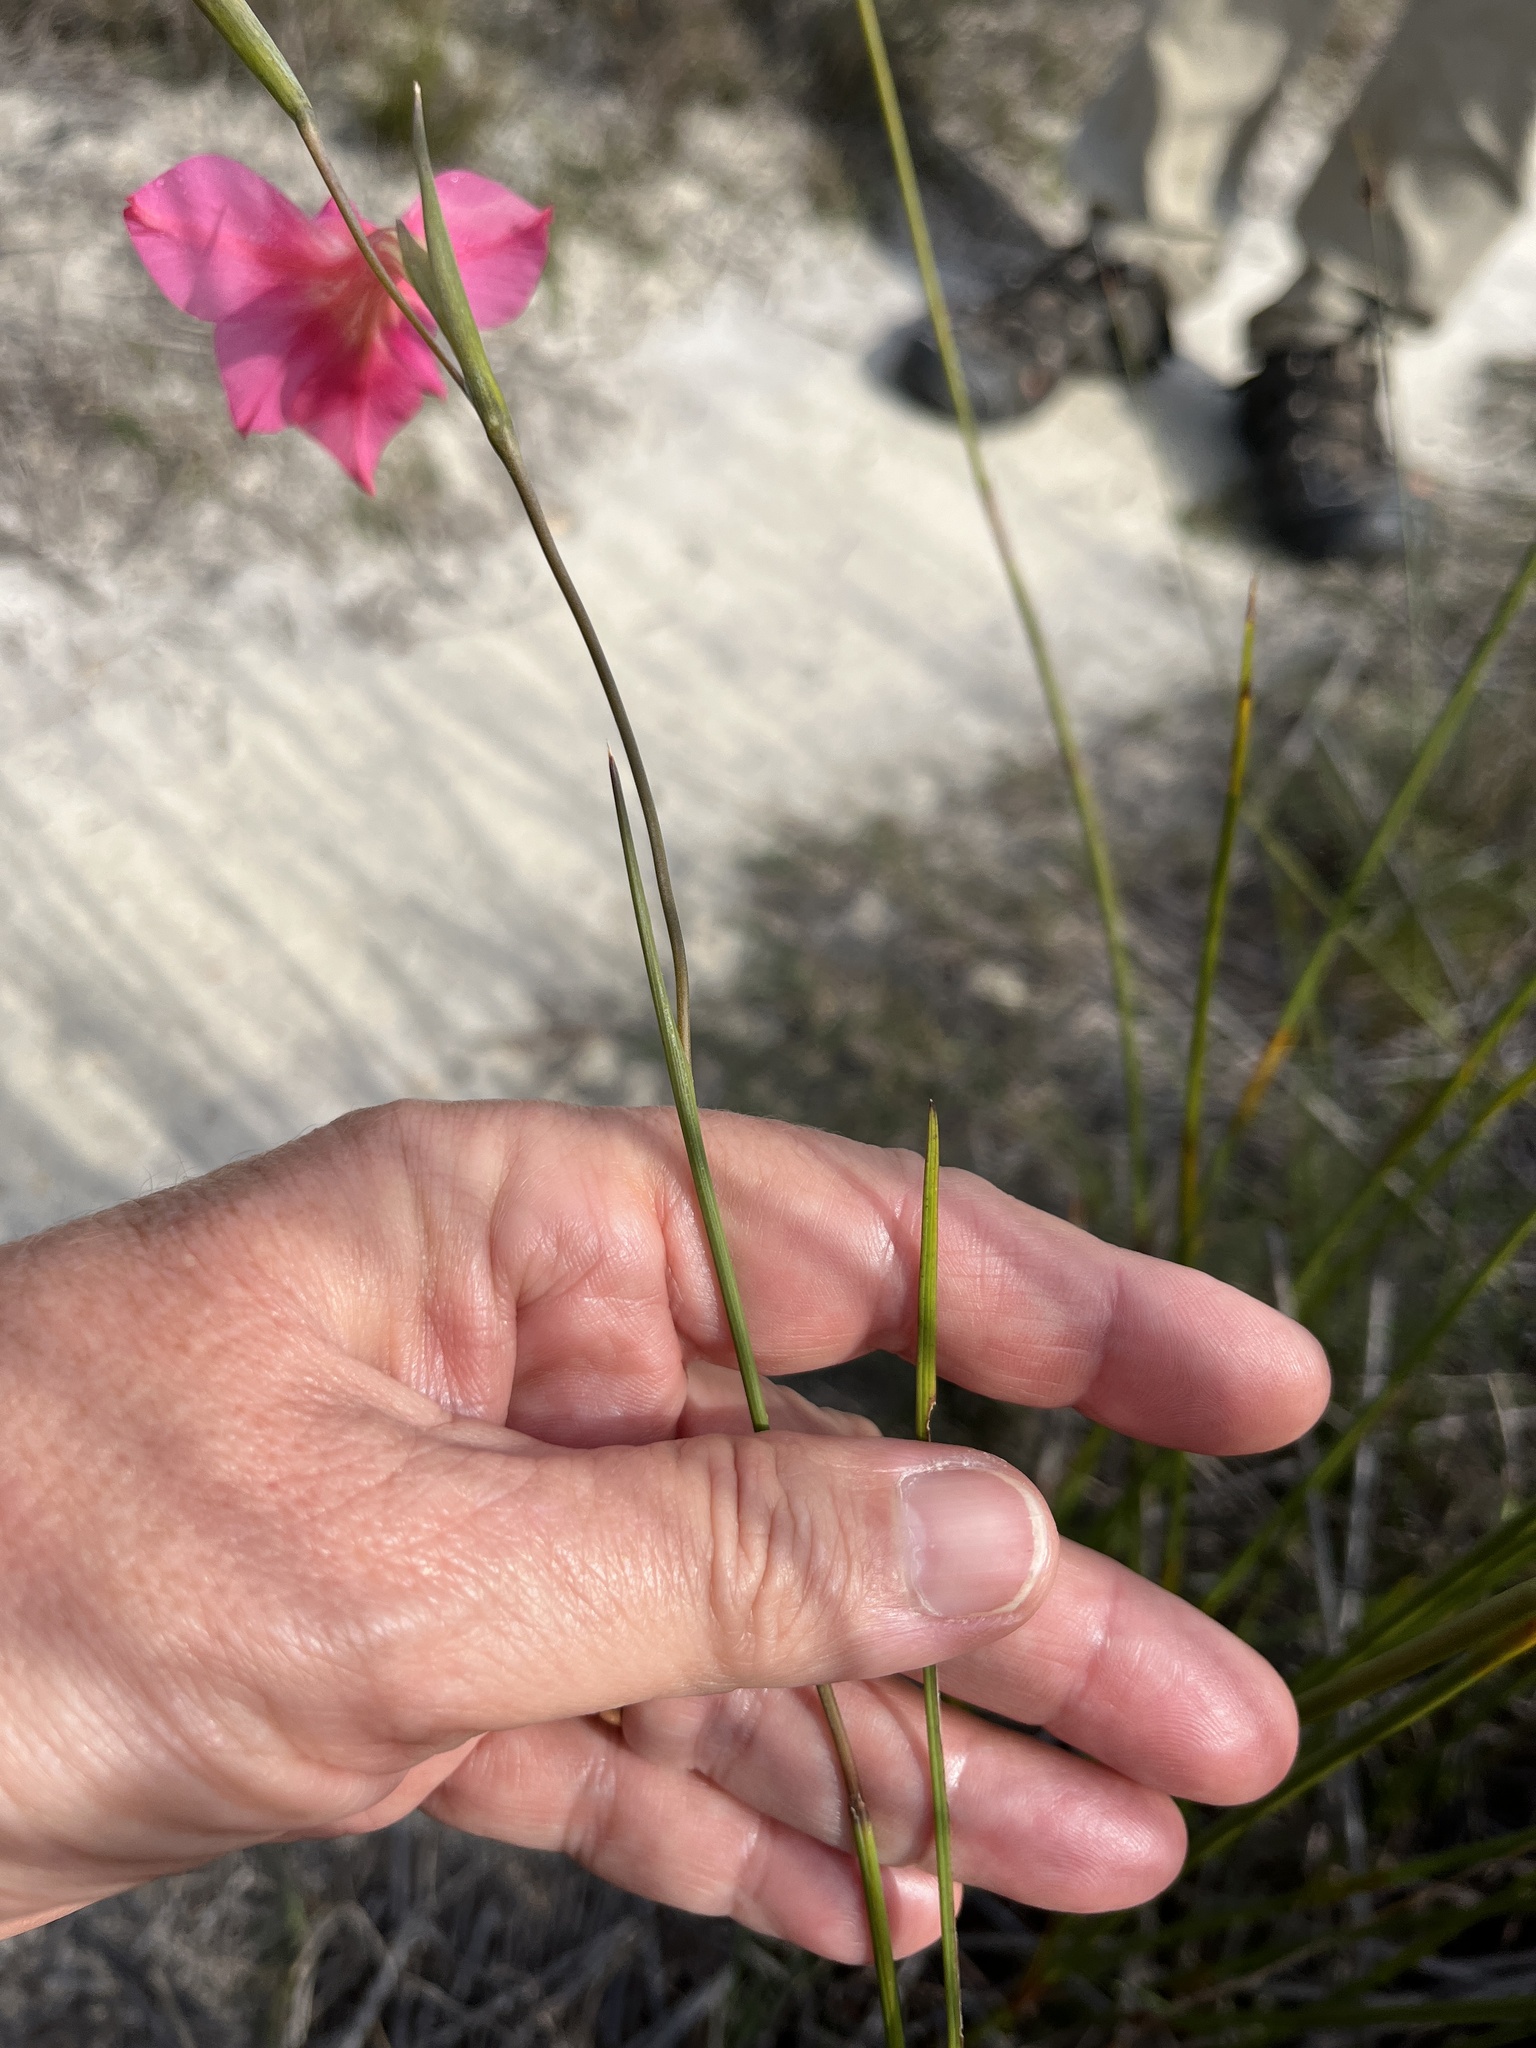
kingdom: Plantae
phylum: Tracheophyta
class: Liliopsida
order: Asparagales
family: Iridaceae
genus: Gladiolus
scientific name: Gladiolus meridionalis
